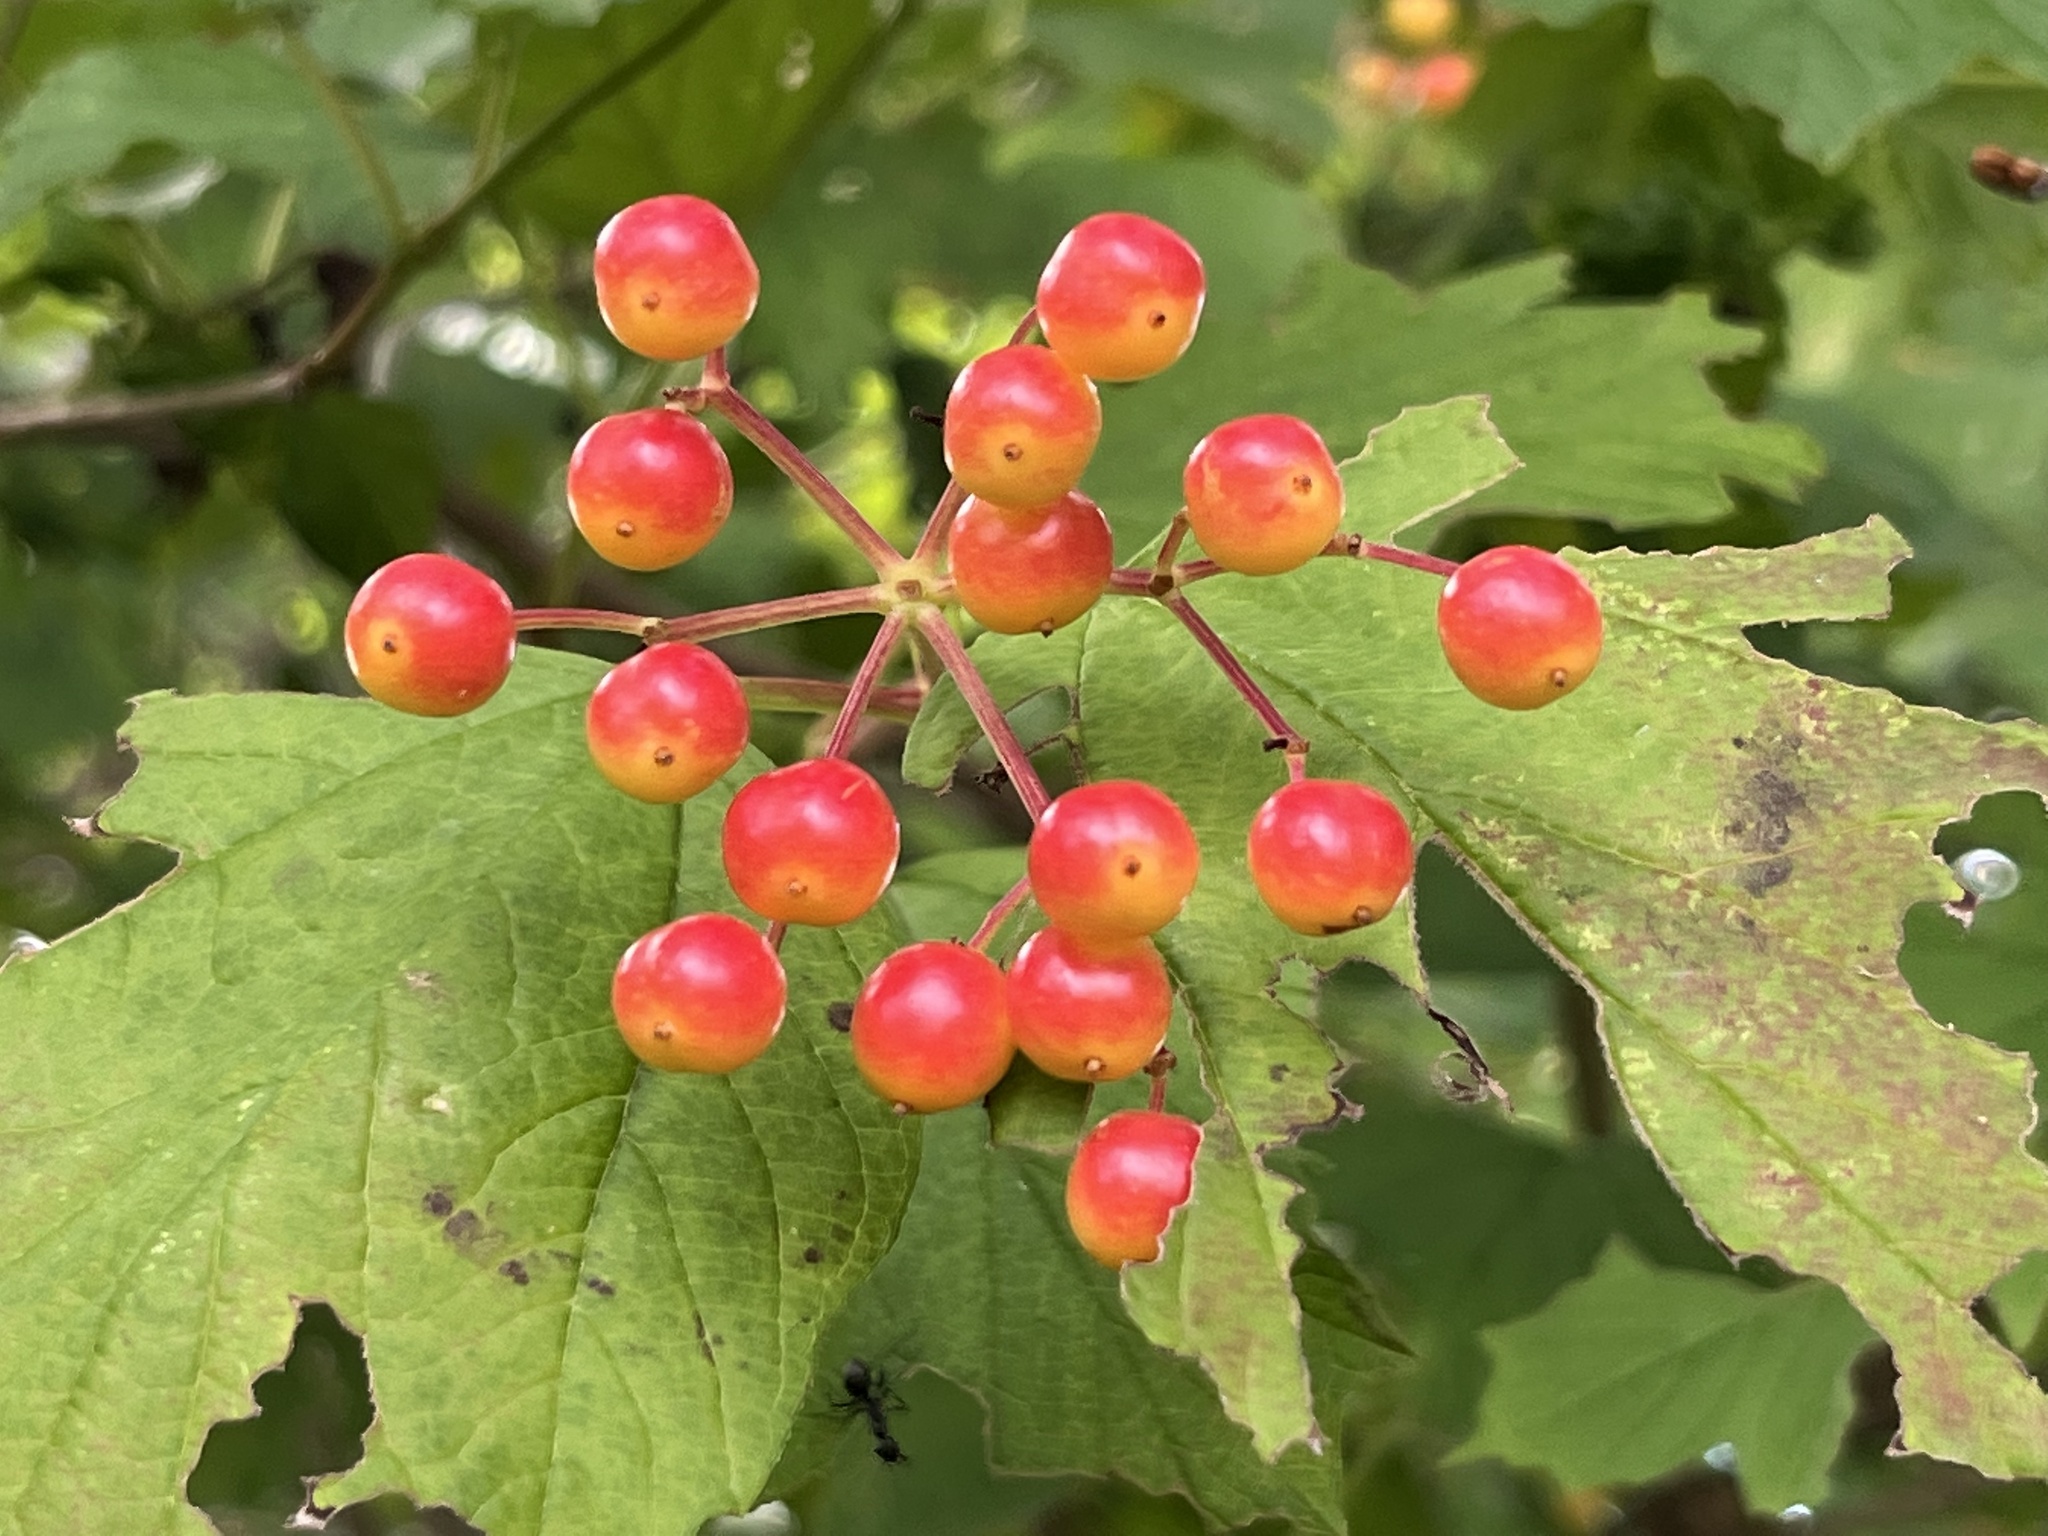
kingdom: Plantae
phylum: Tracheophyta
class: Magnoliopsida
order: Dipsacales
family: Viburnaceae
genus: Viburnum
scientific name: Viburnum opulus
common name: Guelder-rose
